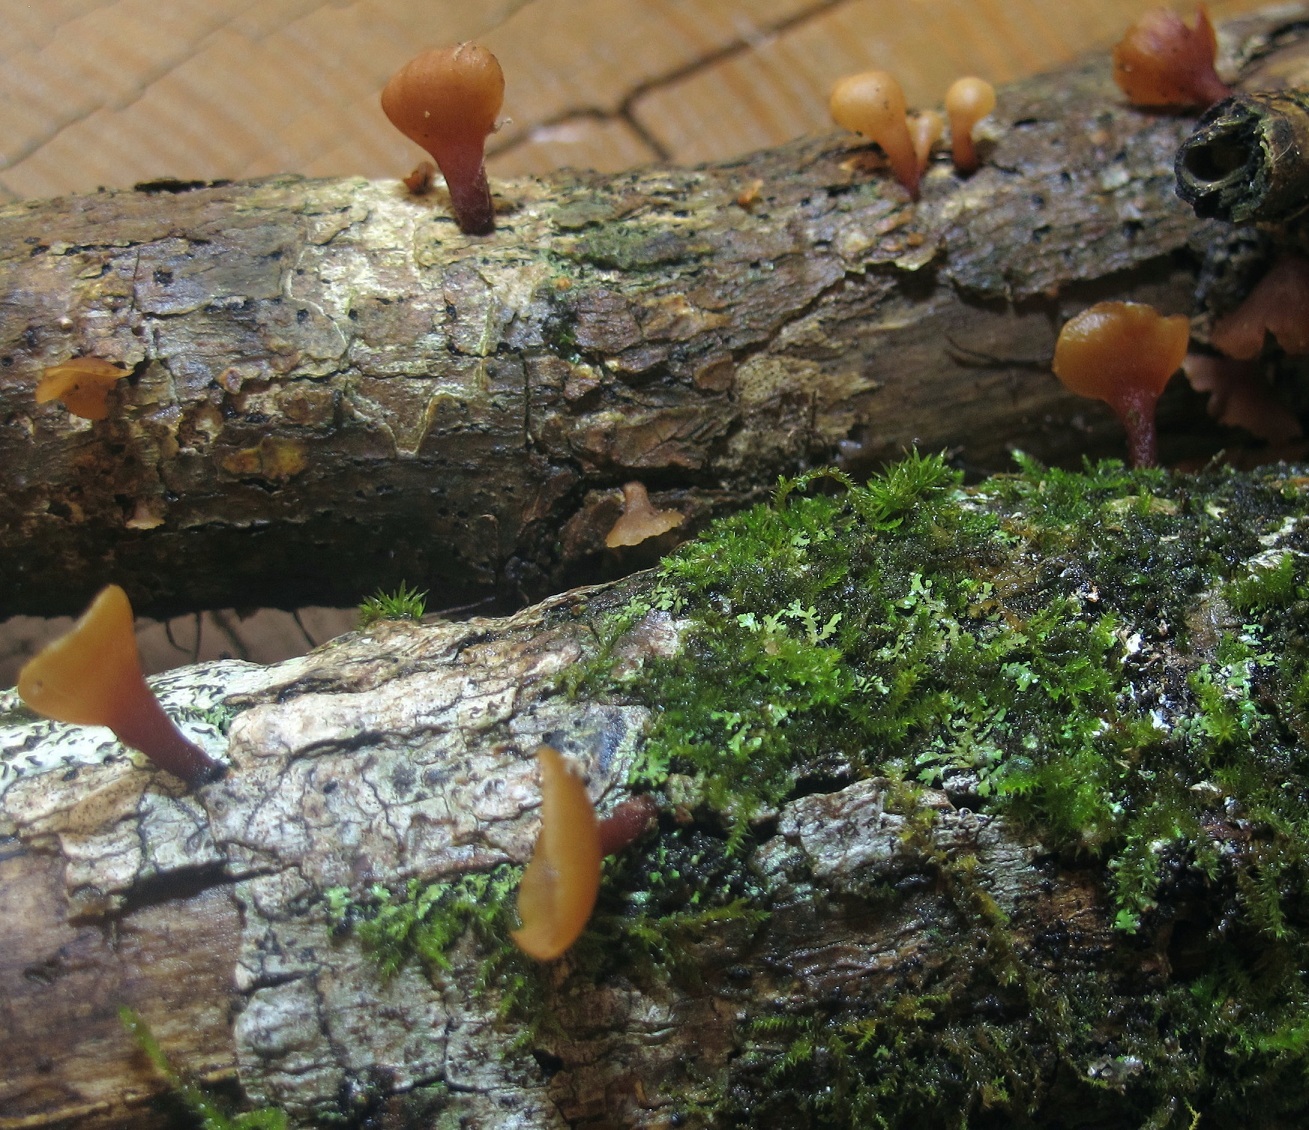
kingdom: Fungi
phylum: Basidiomycota
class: Dacrymycetes
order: Dacrymycetales
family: Dacrymycetaceae
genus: Dacryopinax
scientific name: Dacryopinax elegans
